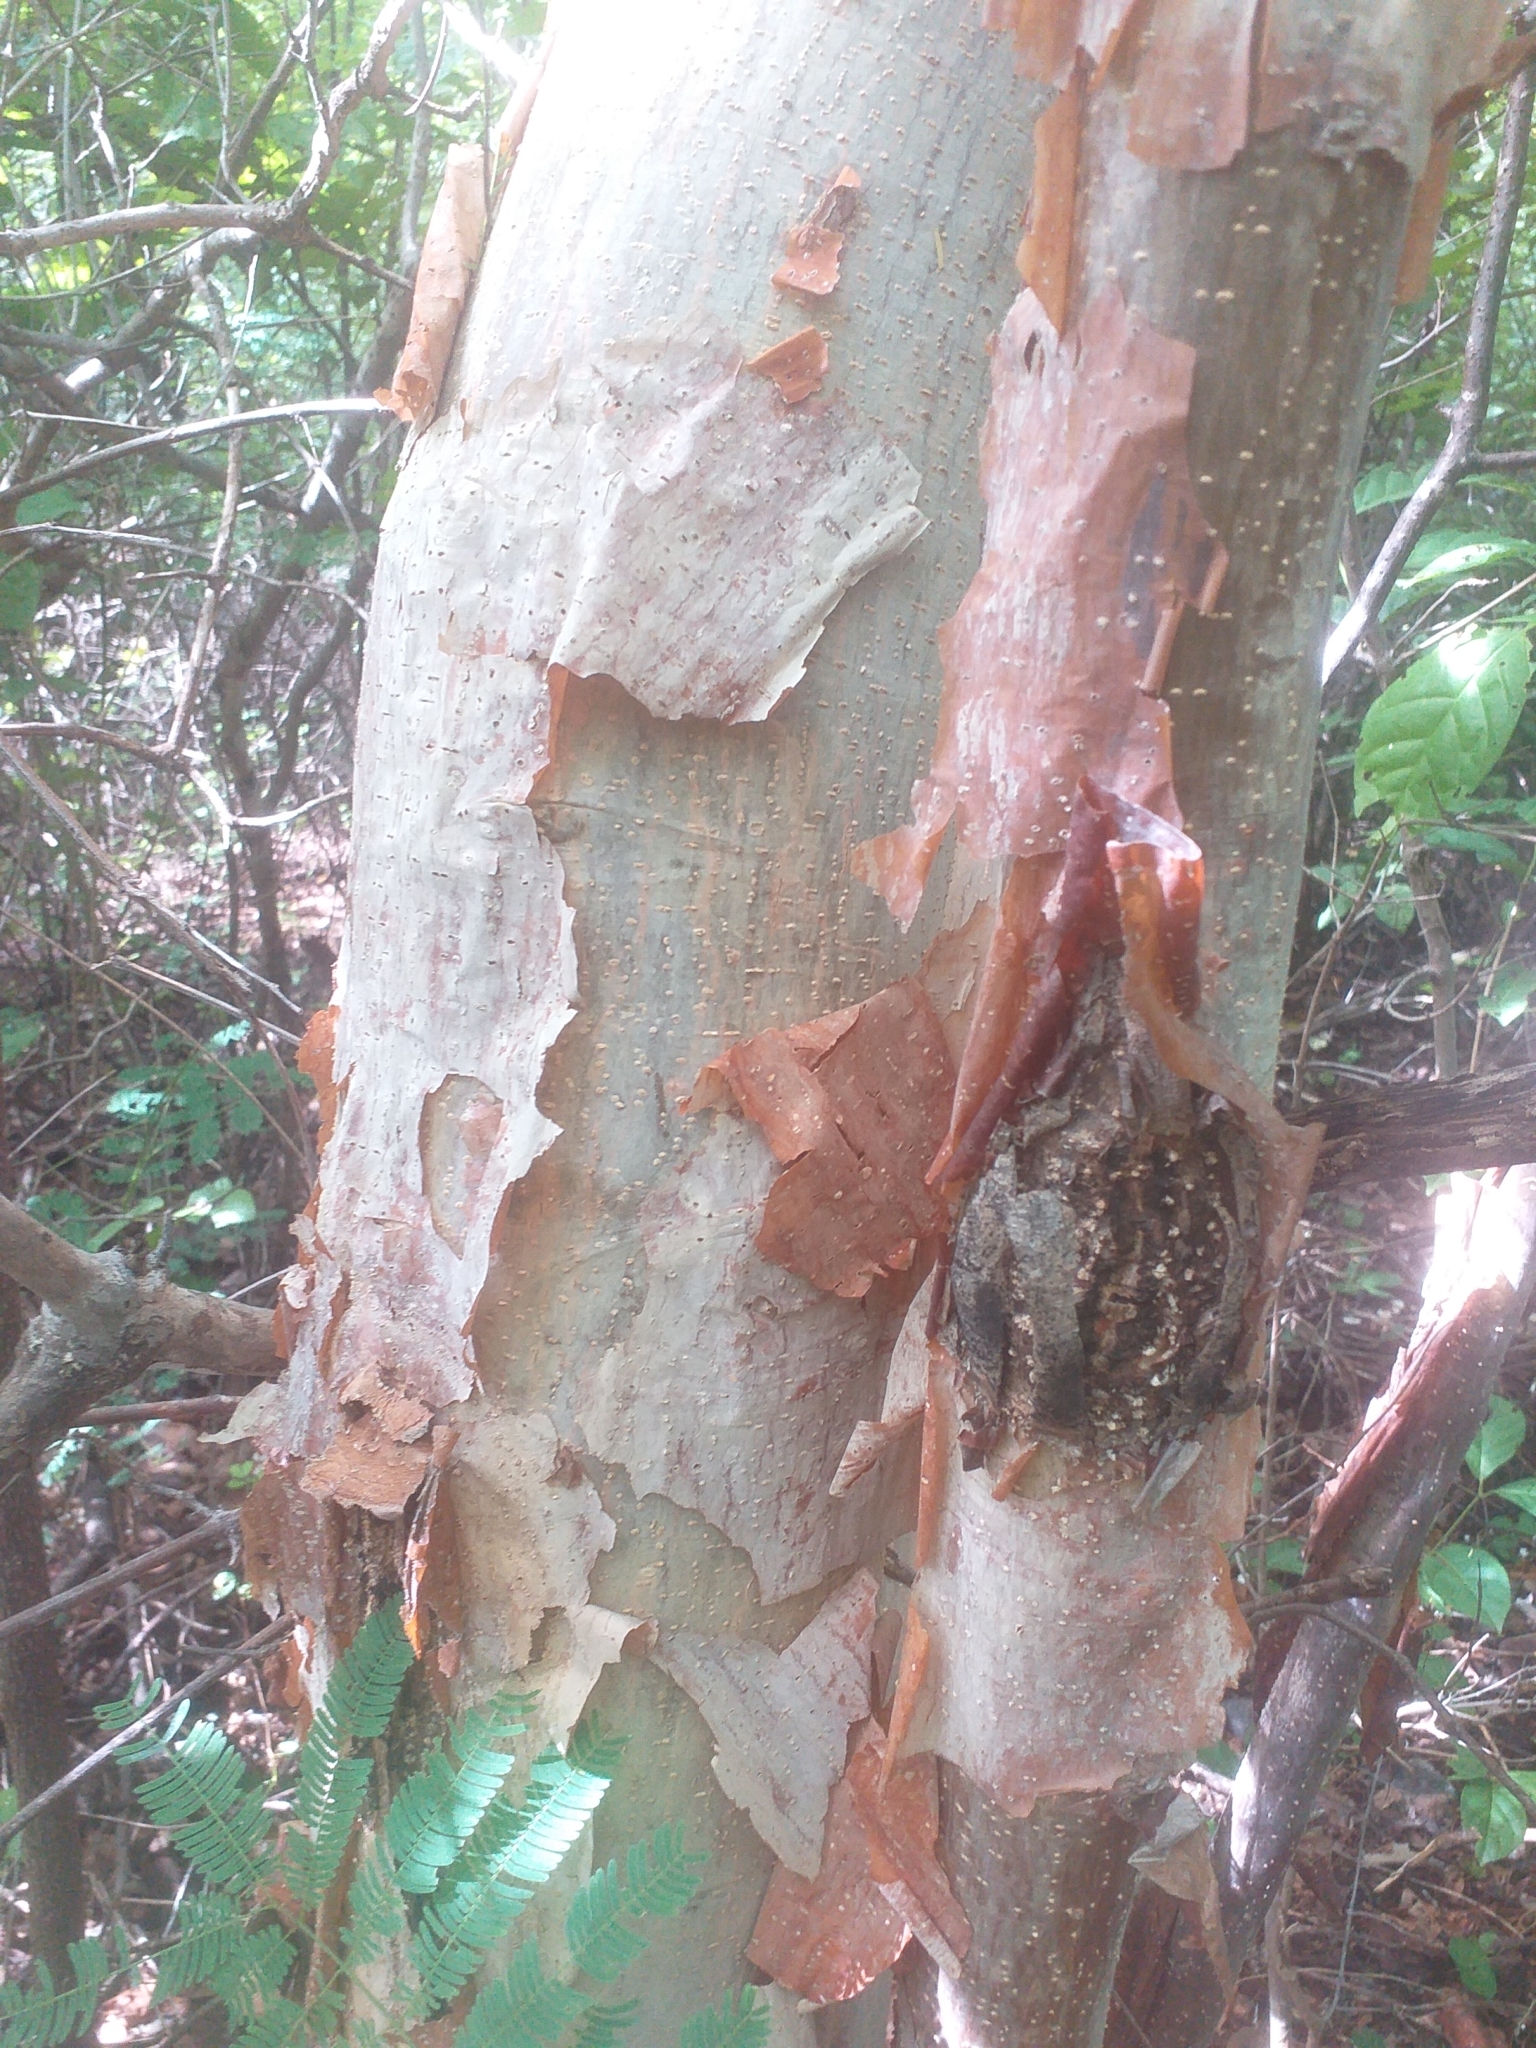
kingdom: Plantae
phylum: Tracheophyta
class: Magnoliopsida
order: Fabales
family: Fabaceae
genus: Amburana
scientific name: Amburana cearensis
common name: Cerejeira
